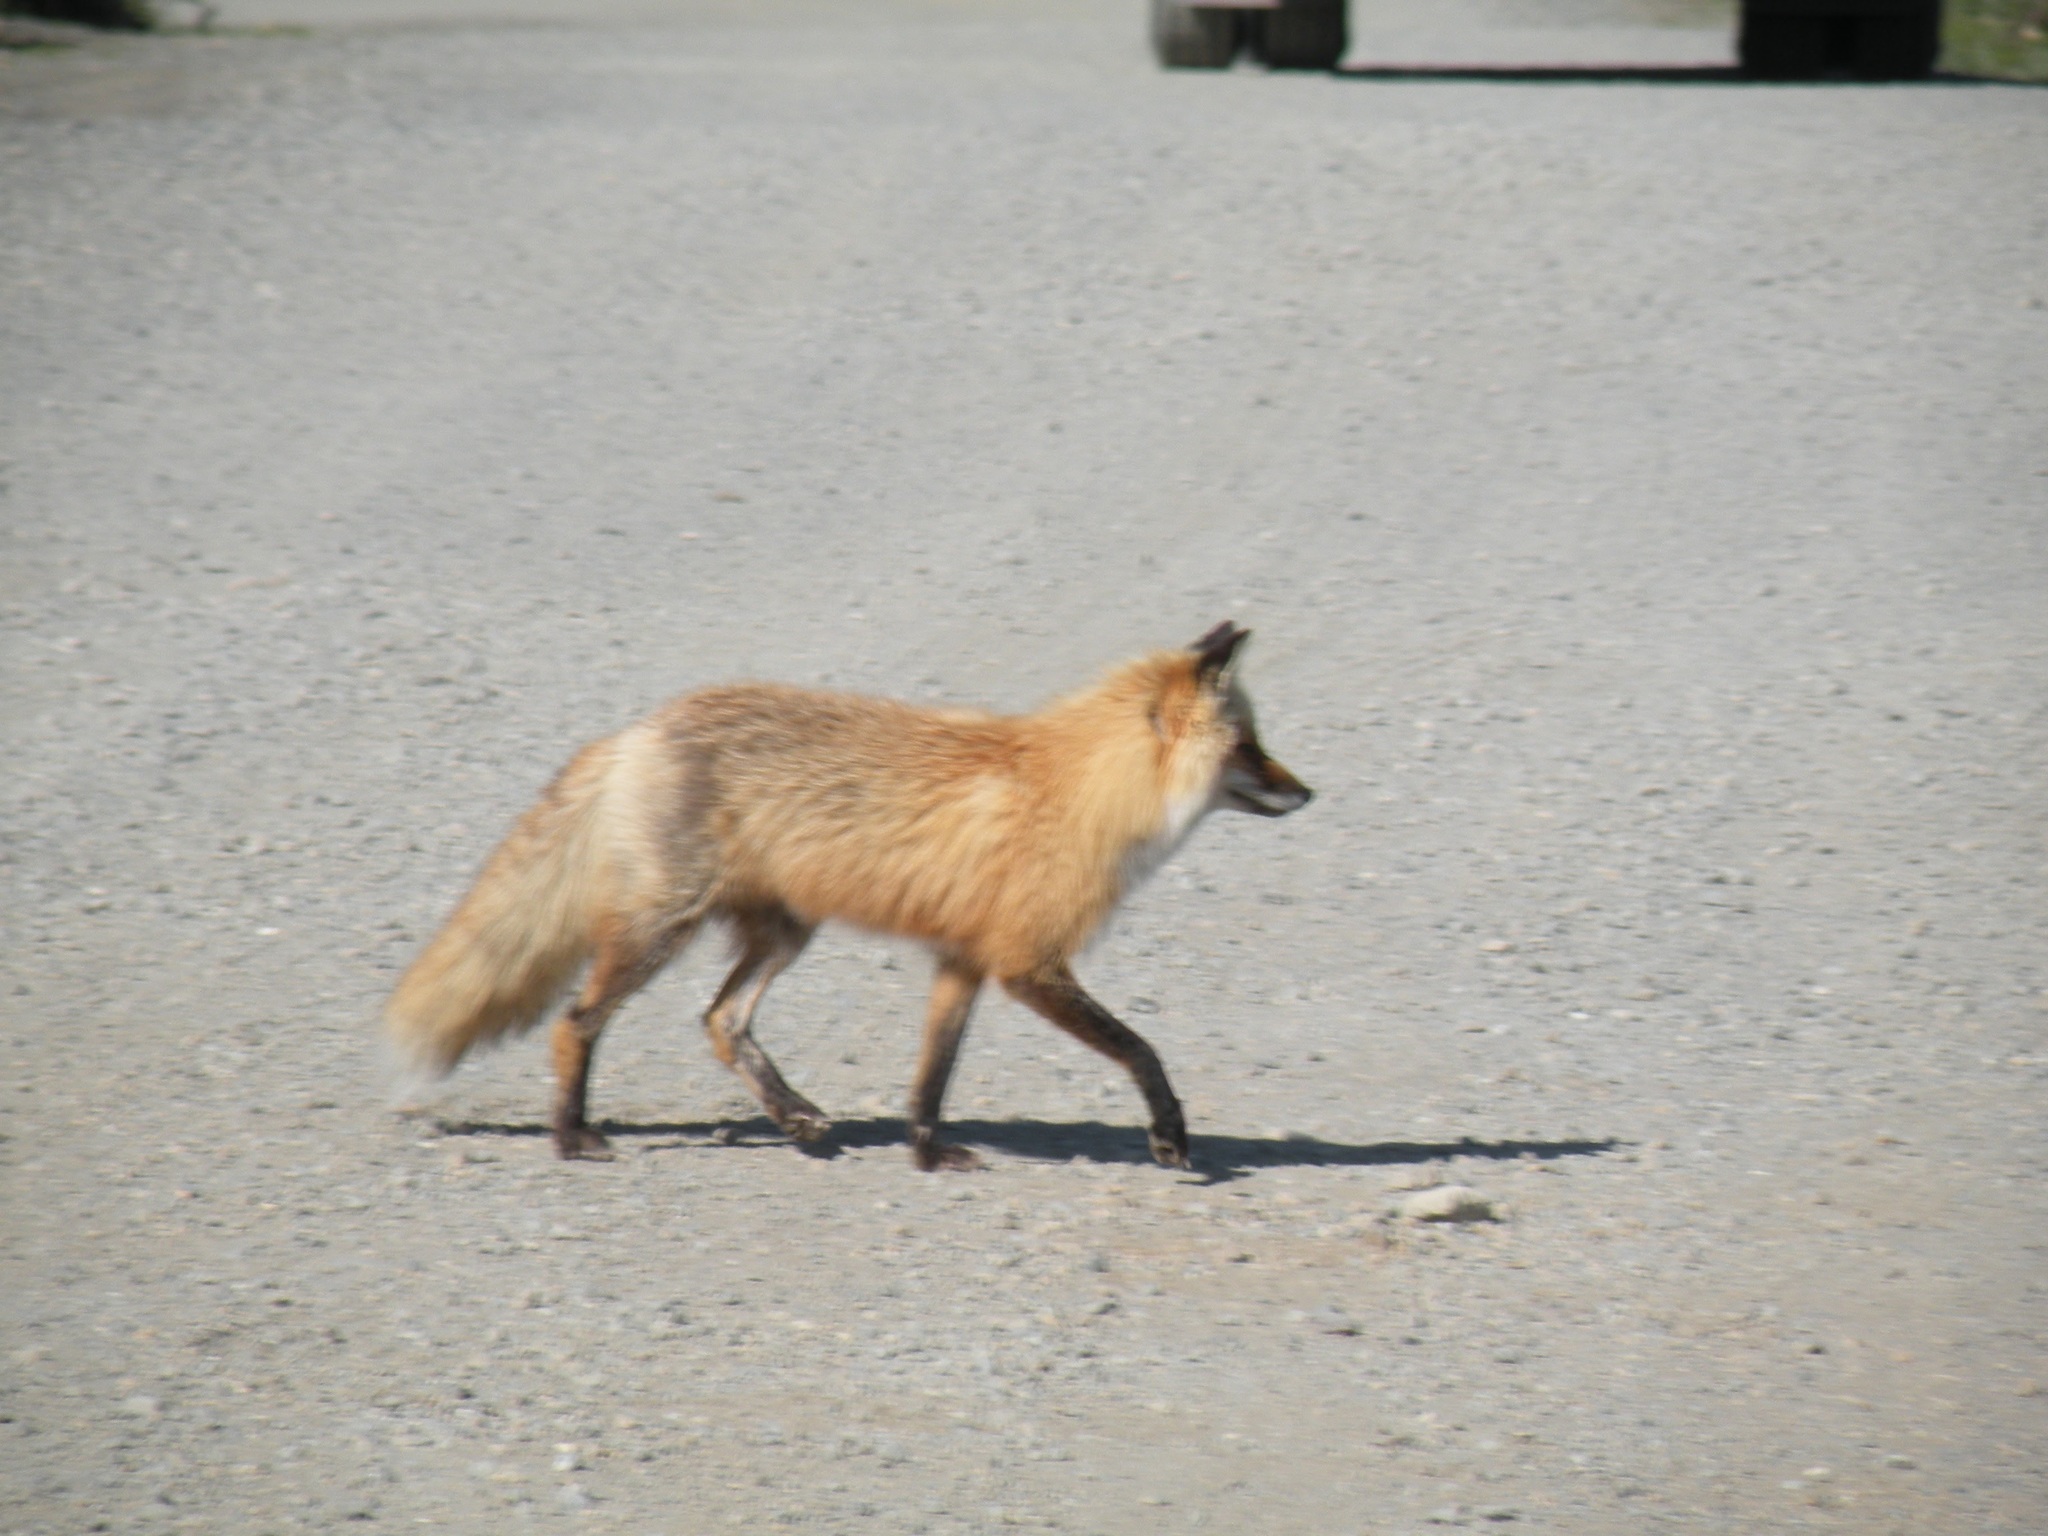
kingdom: Animalia
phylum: Chordata
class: Mammalia
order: Carnivora
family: Canidae
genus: Vulpes
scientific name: Vulpes vulpes
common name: Red fox
